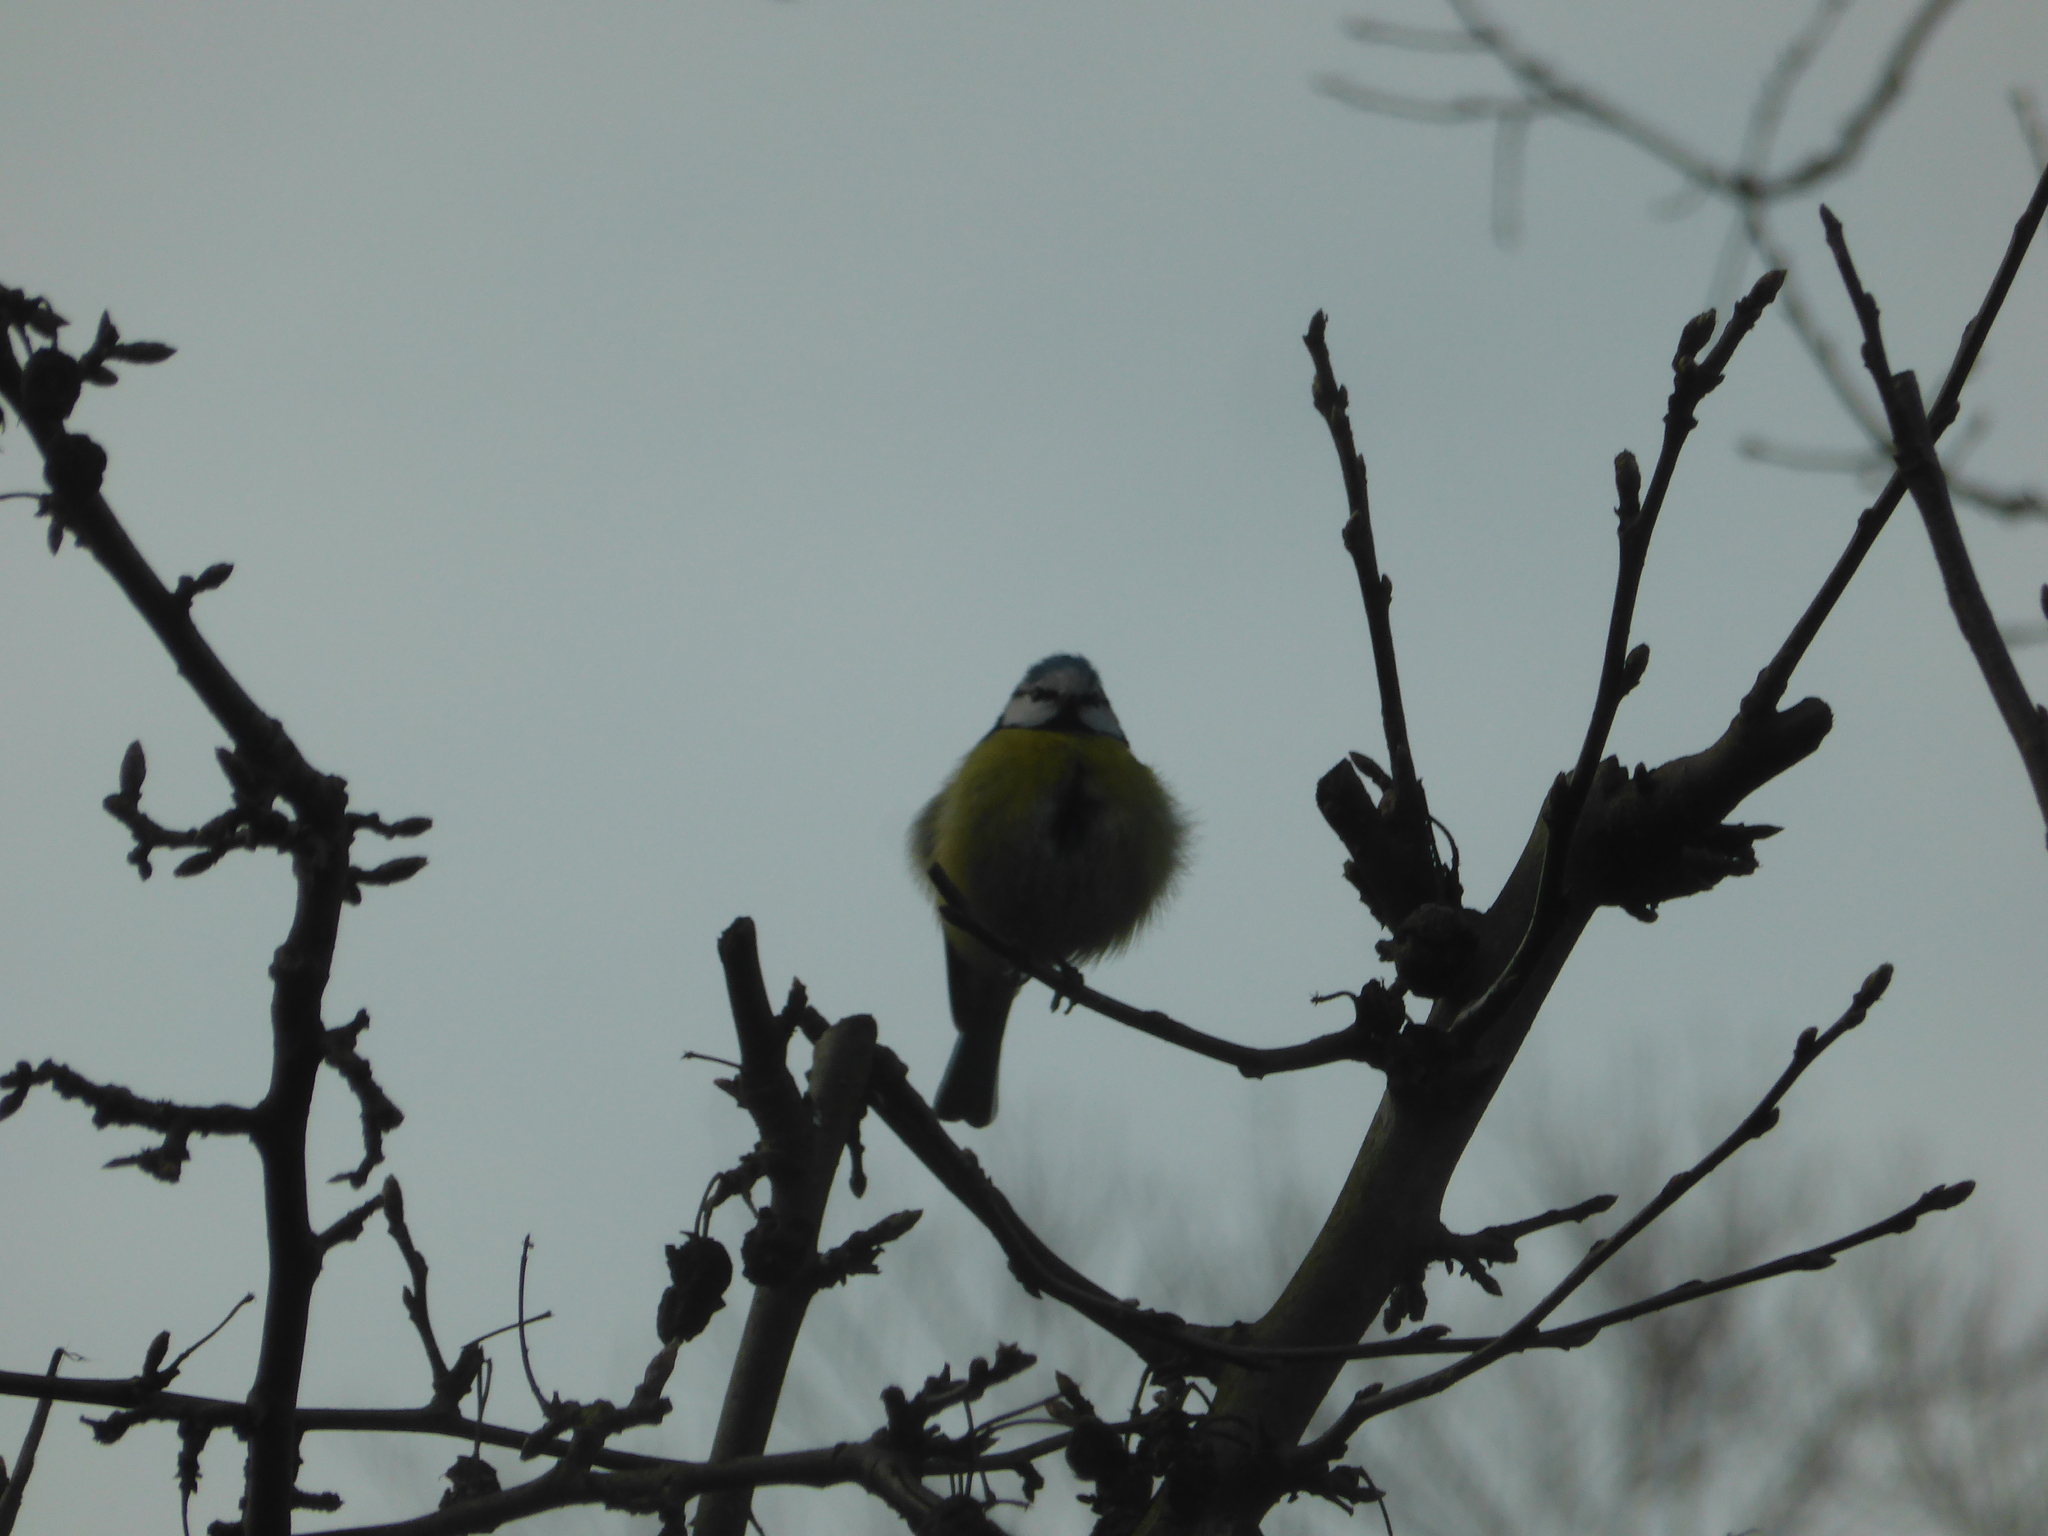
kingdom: Animalia
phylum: Chordata
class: Aves
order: Passeriformes
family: Paridae
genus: Cyanistes
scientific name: Cyanistes caeruleus
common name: Eurasian blue tit
